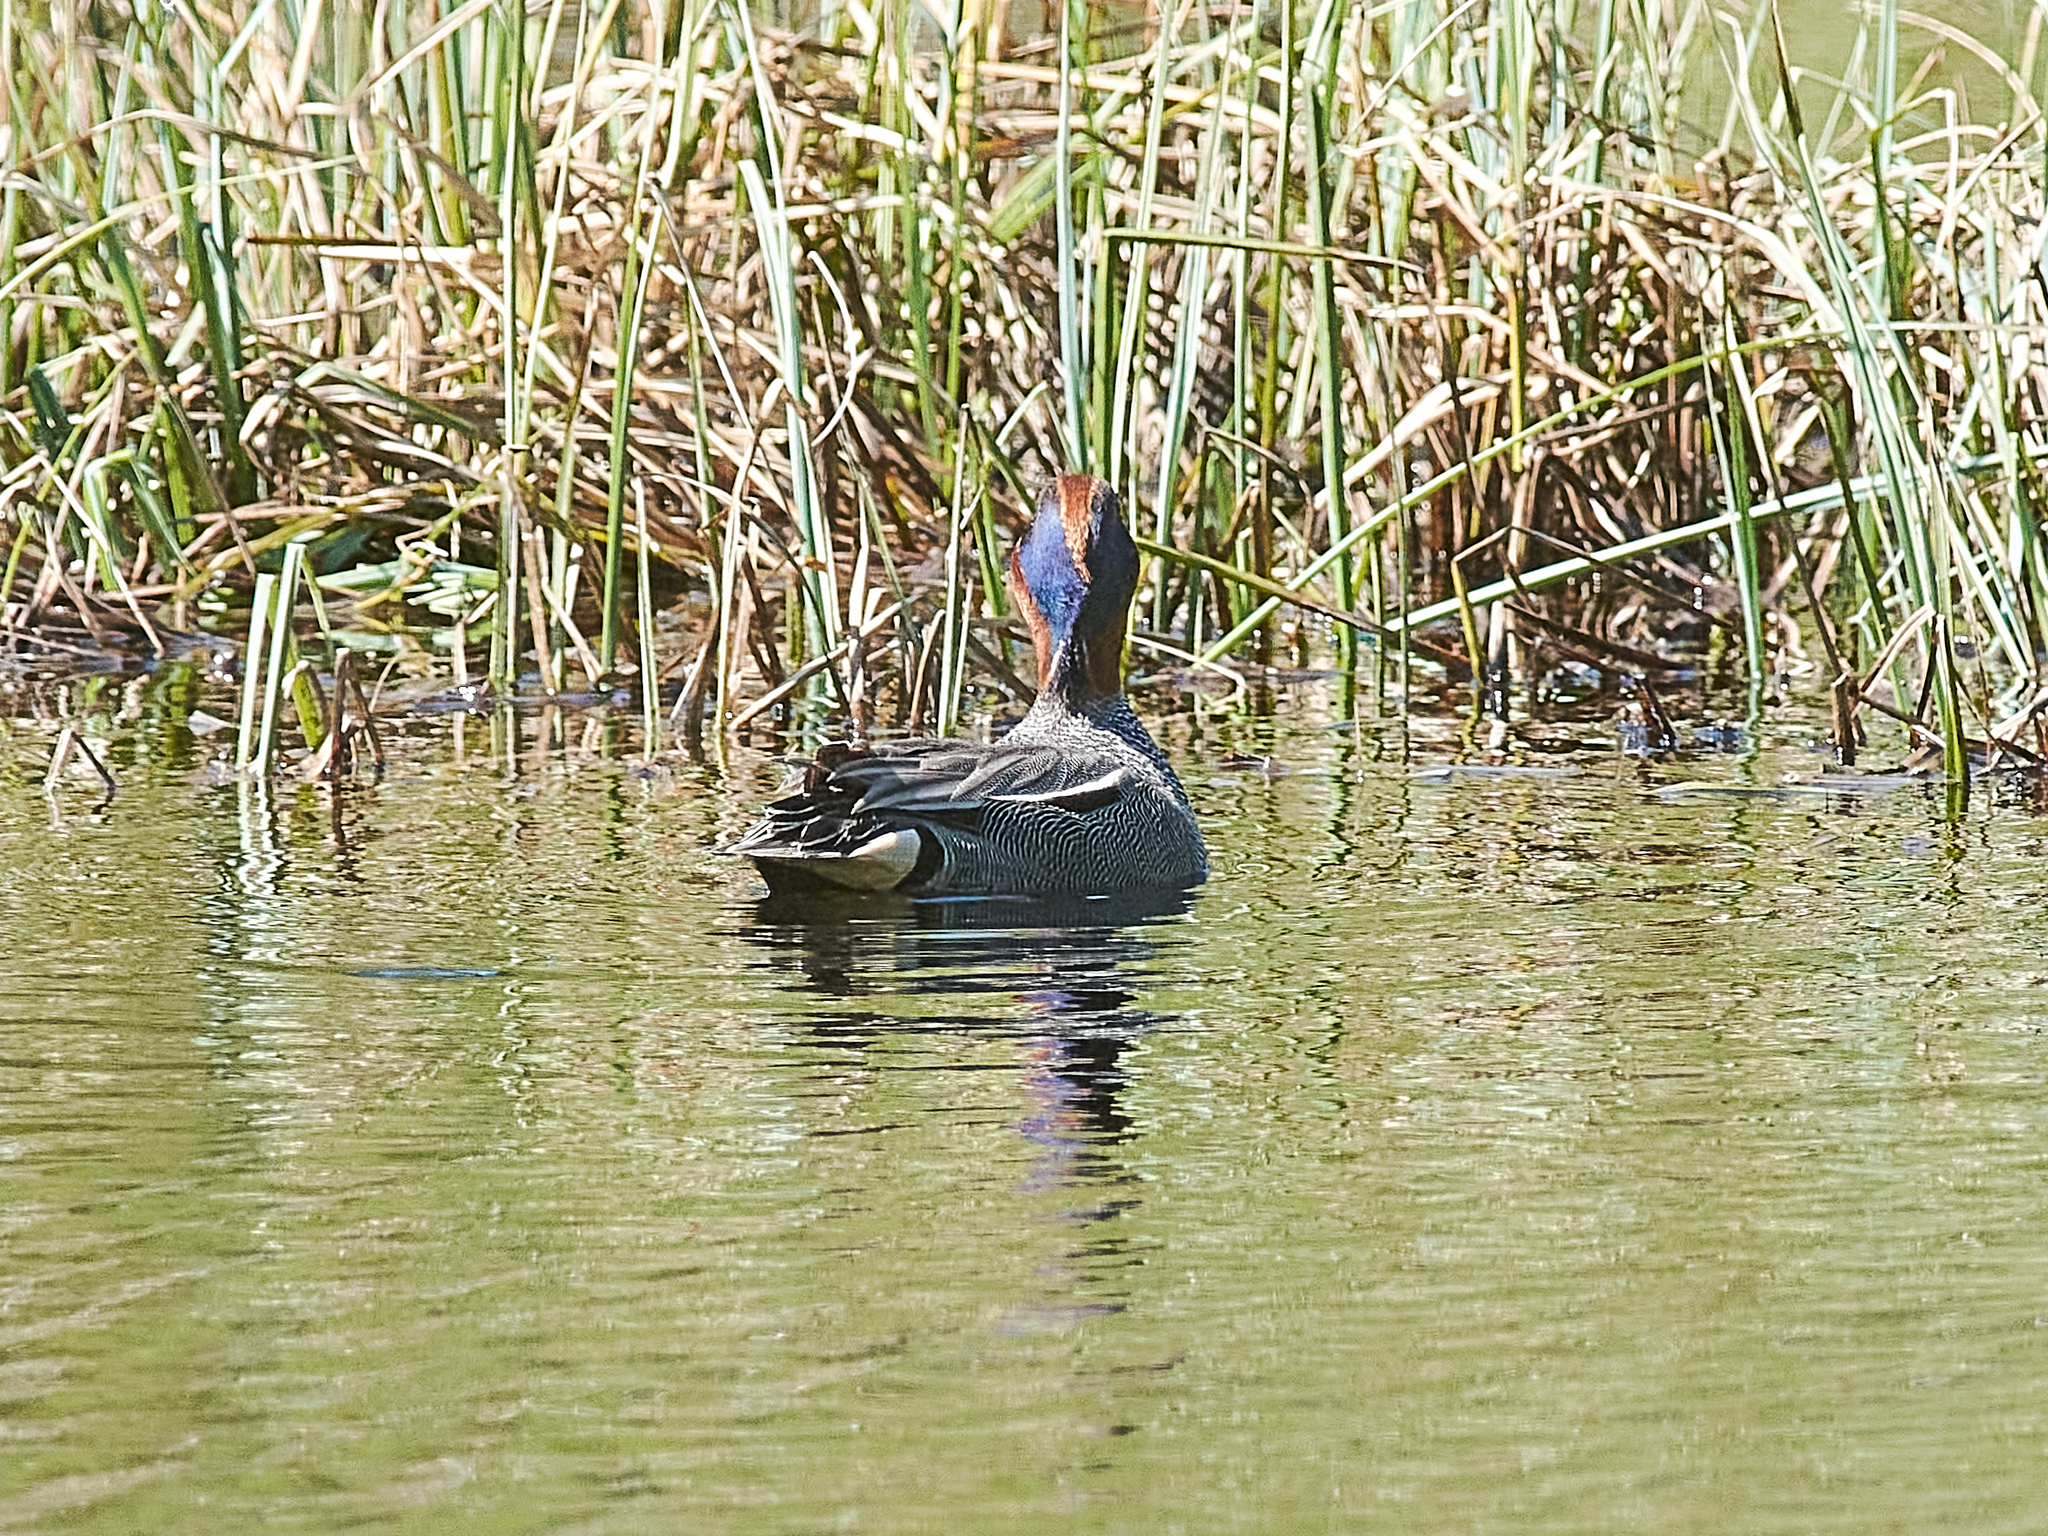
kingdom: Animalia
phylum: Chordata
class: Aves
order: Anseriformes
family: Anatidae
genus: Anas
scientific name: Anas crecca
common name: Eurasian teal
